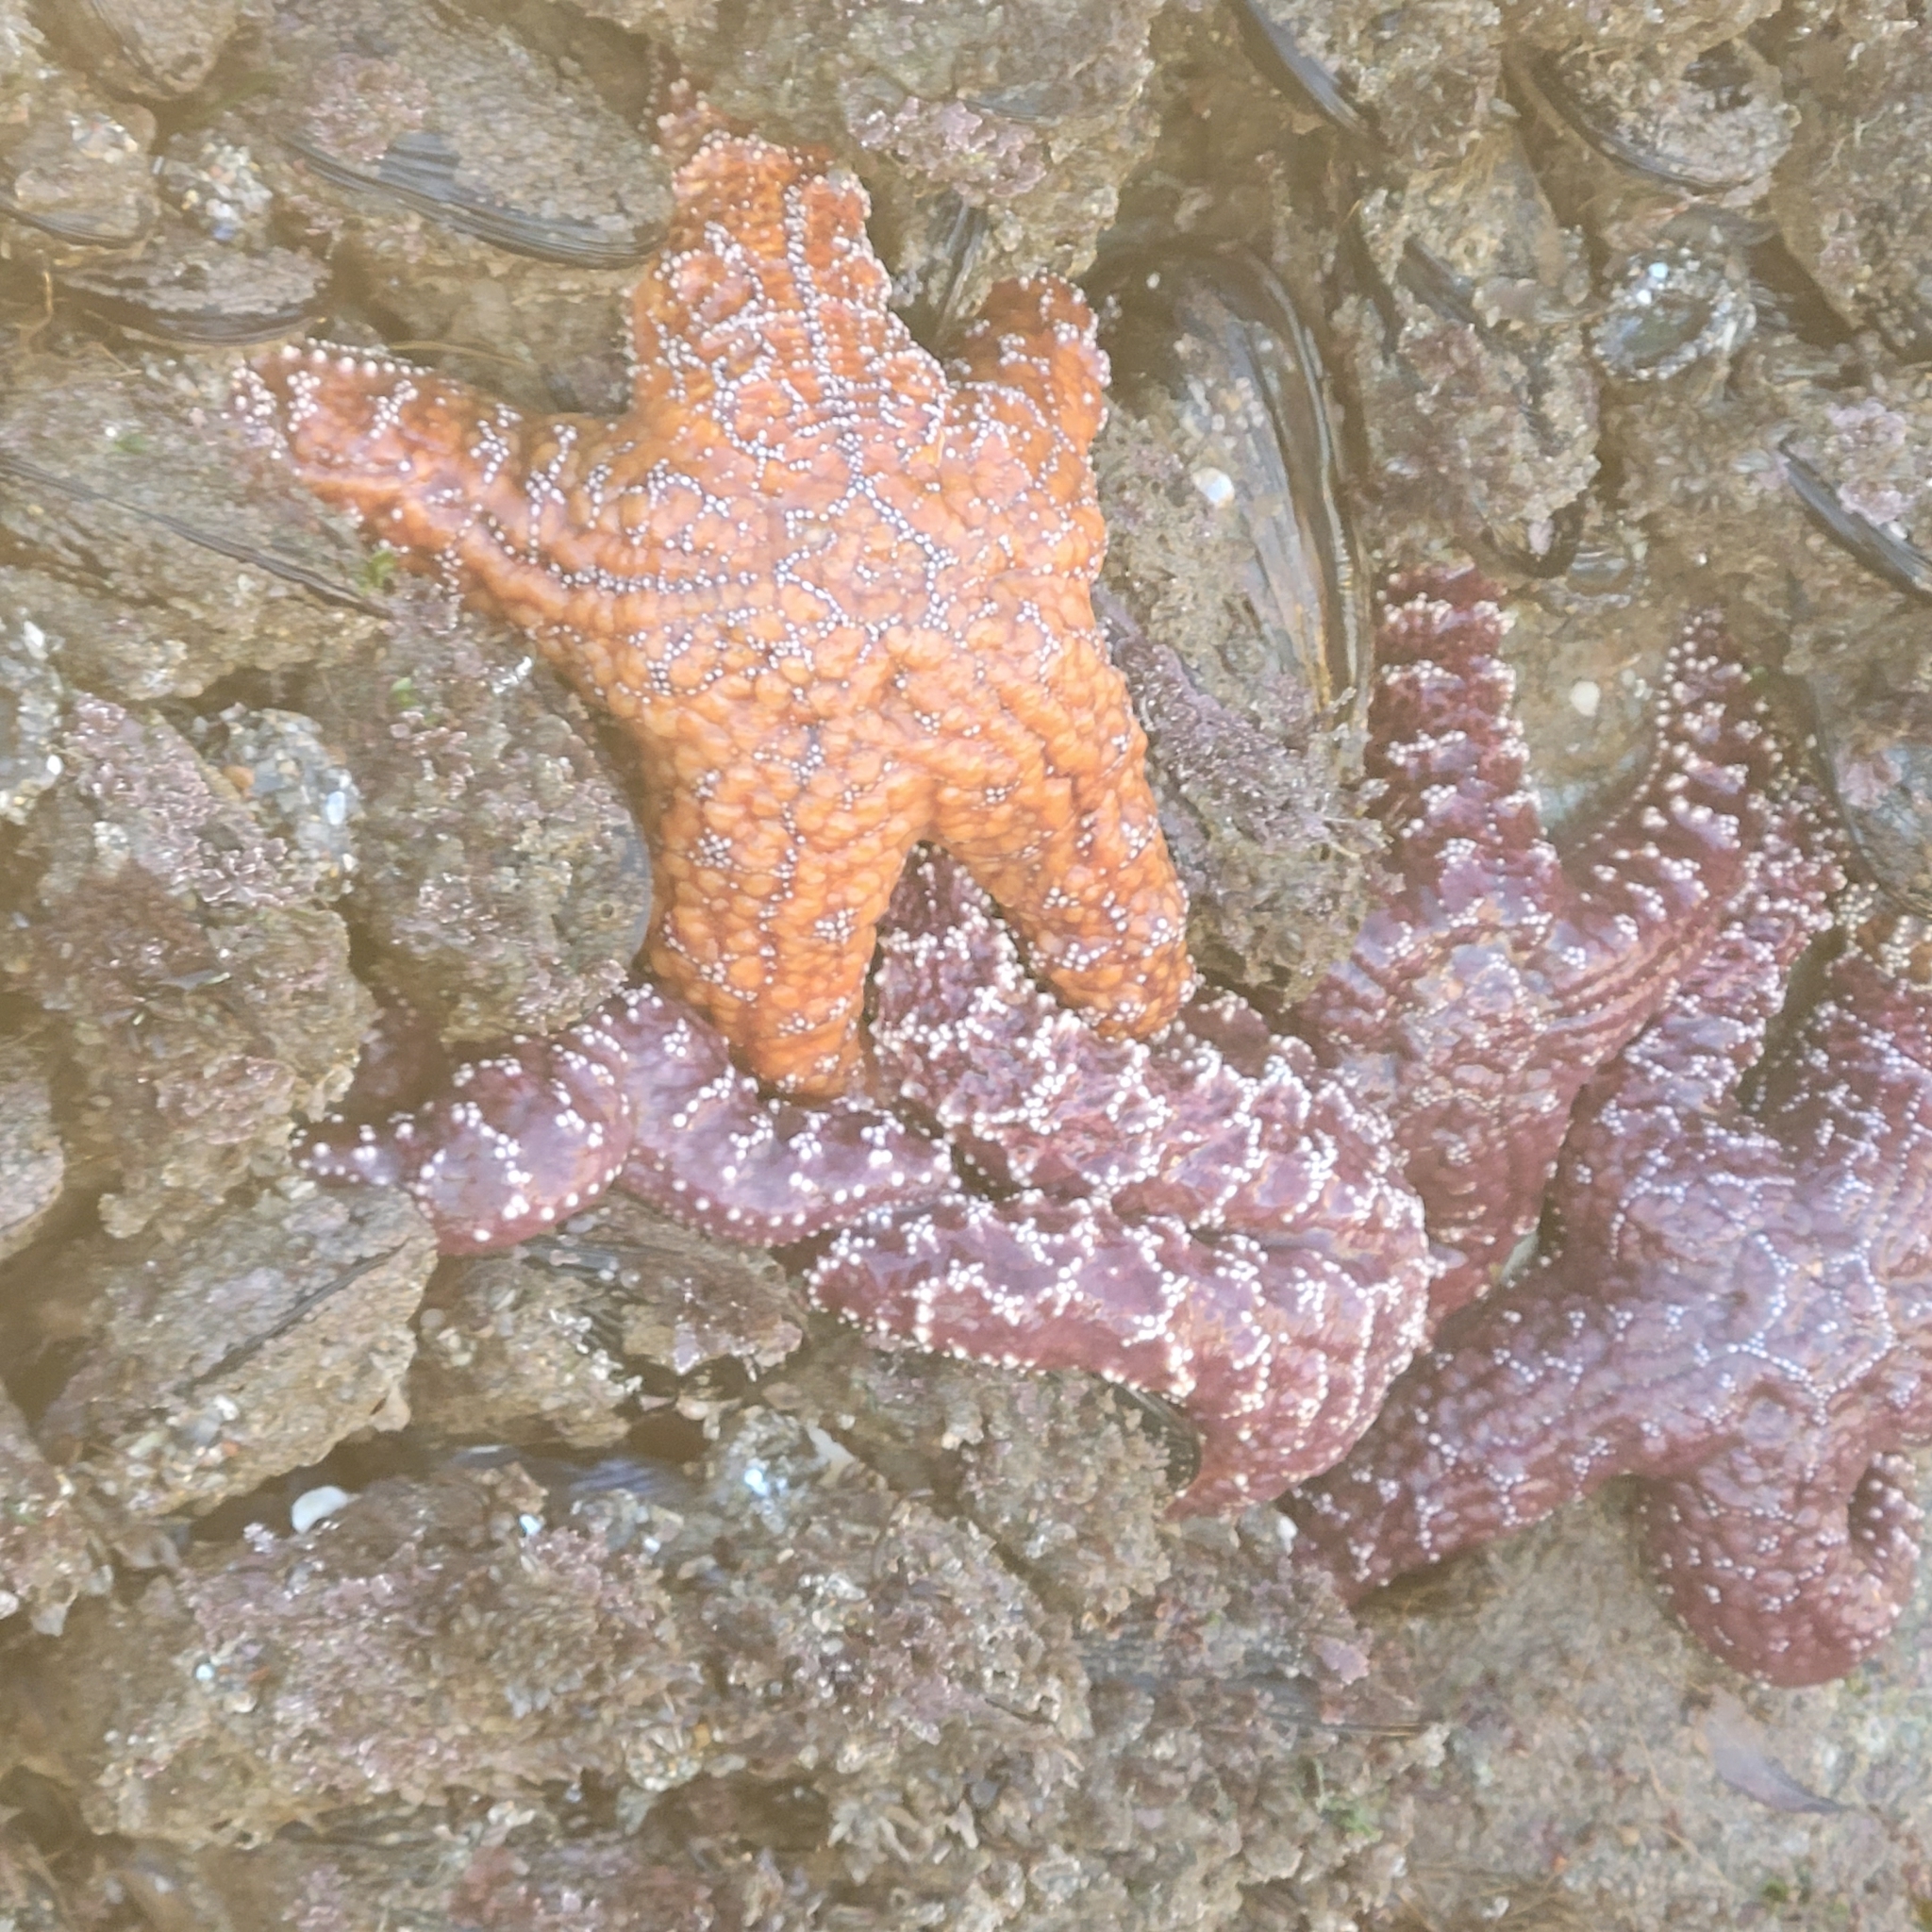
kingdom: Animalia
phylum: Echinodermata
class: Asteroidea
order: Forcipulatida
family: Asteriidae
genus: Pisaster
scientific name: Pisaster ochraceus
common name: Ochre stars
